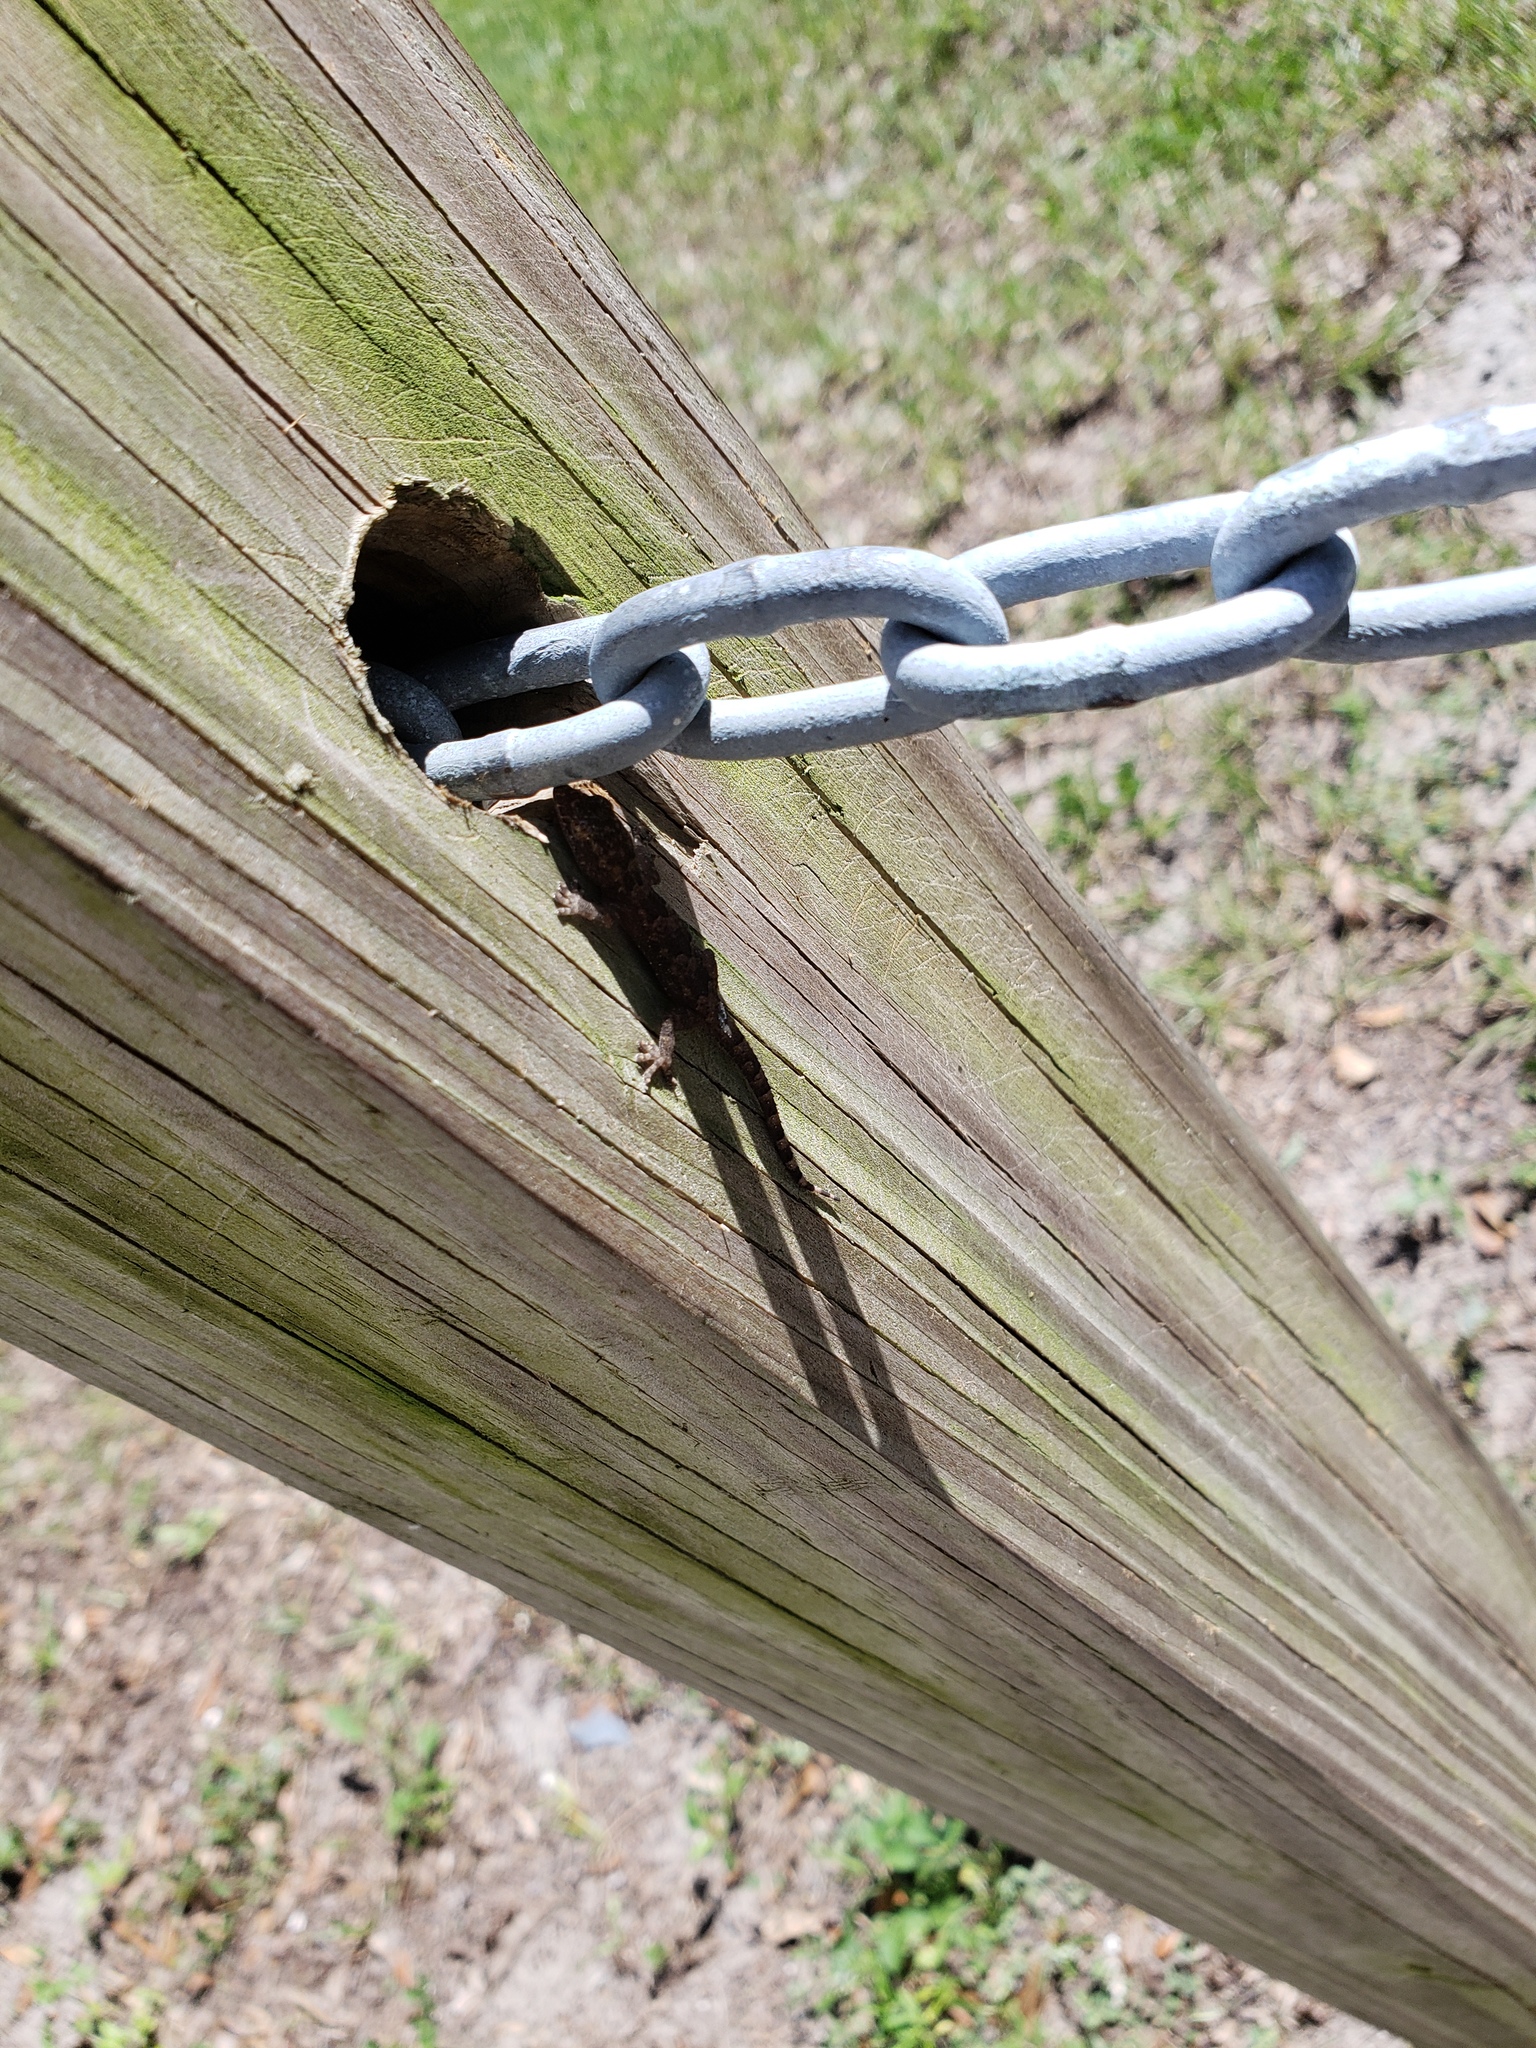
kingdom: Animalia
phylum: Chordata
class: Squamata
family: Gekkonidae
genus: Hemidactylus
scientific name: Hemidactylus mabouia
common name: House gecko
